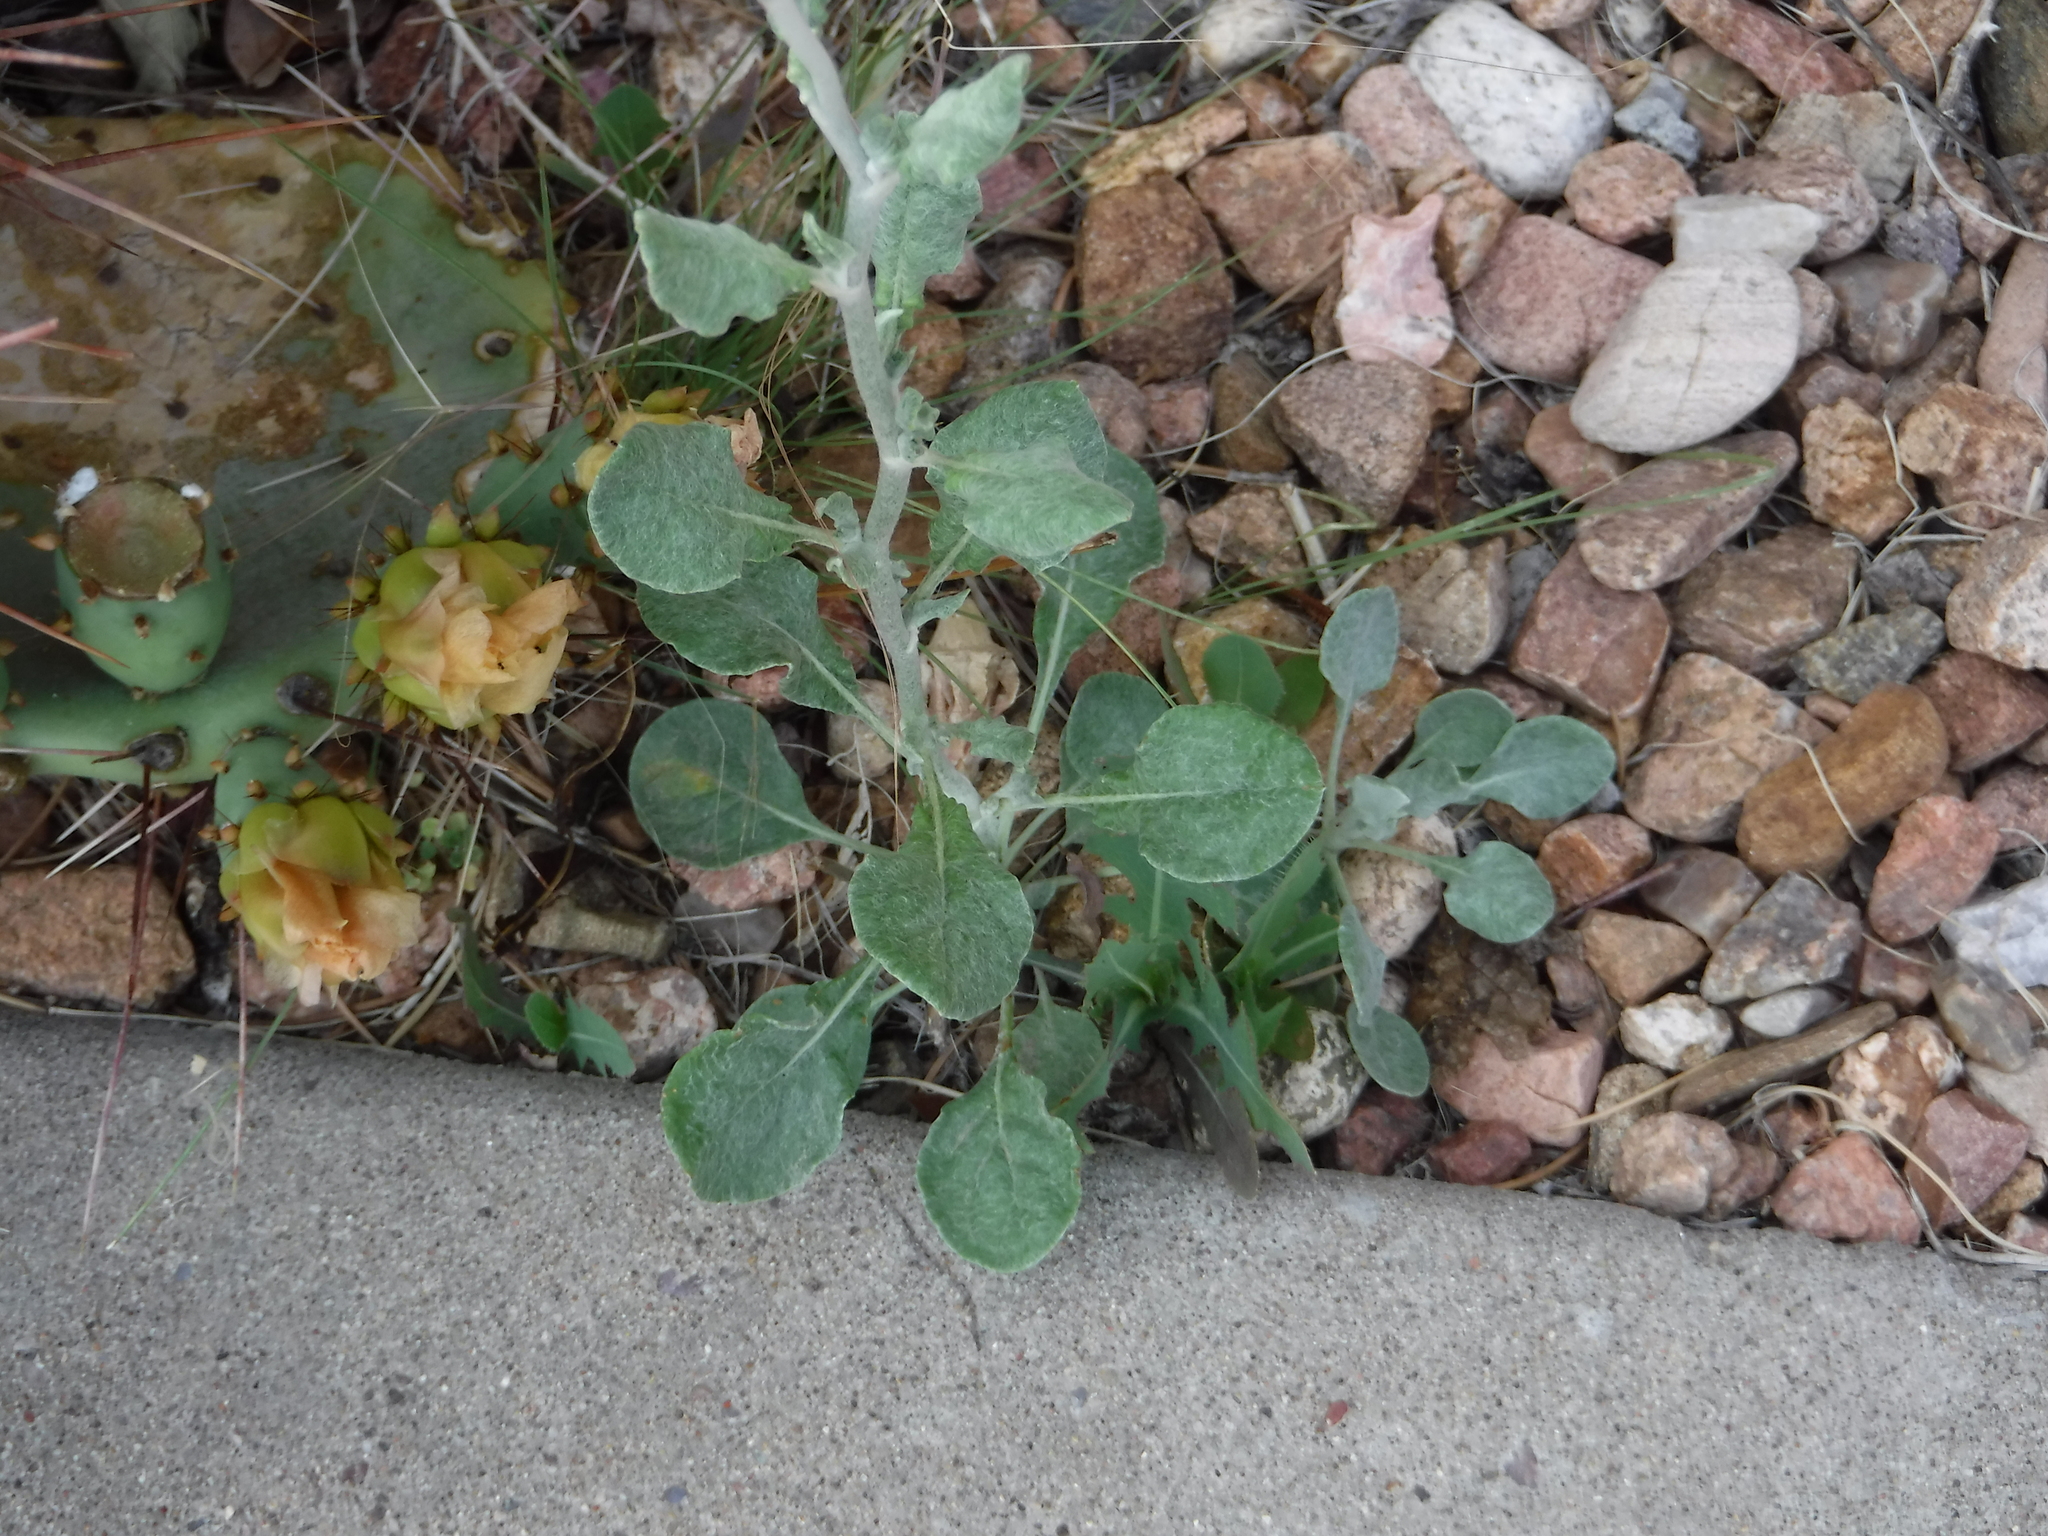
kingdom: Plantae
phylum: Tracheophyta
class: Magnoliopsida
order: Caryophyllales
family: Polygonaceae
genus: Eriogonum
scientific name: Eriogonum polycladon
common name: Sorrel wild buckwheat
